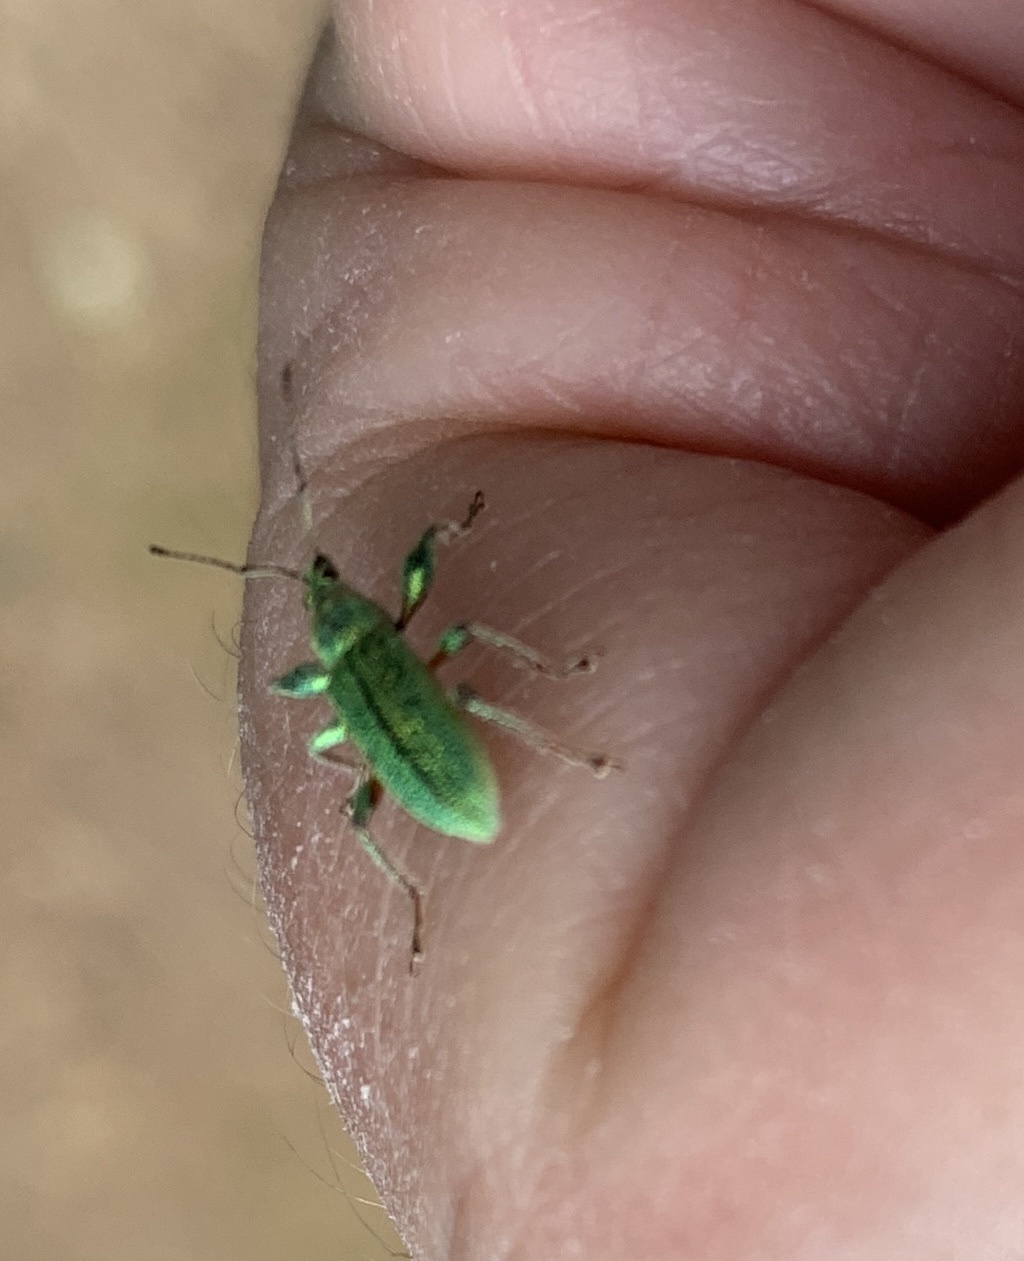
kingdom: Animalia
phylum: Arthropoda
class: Insecta
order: Coleoptera
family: Curculionidae
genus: Phyllobius
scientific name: Phyllobius arborator
